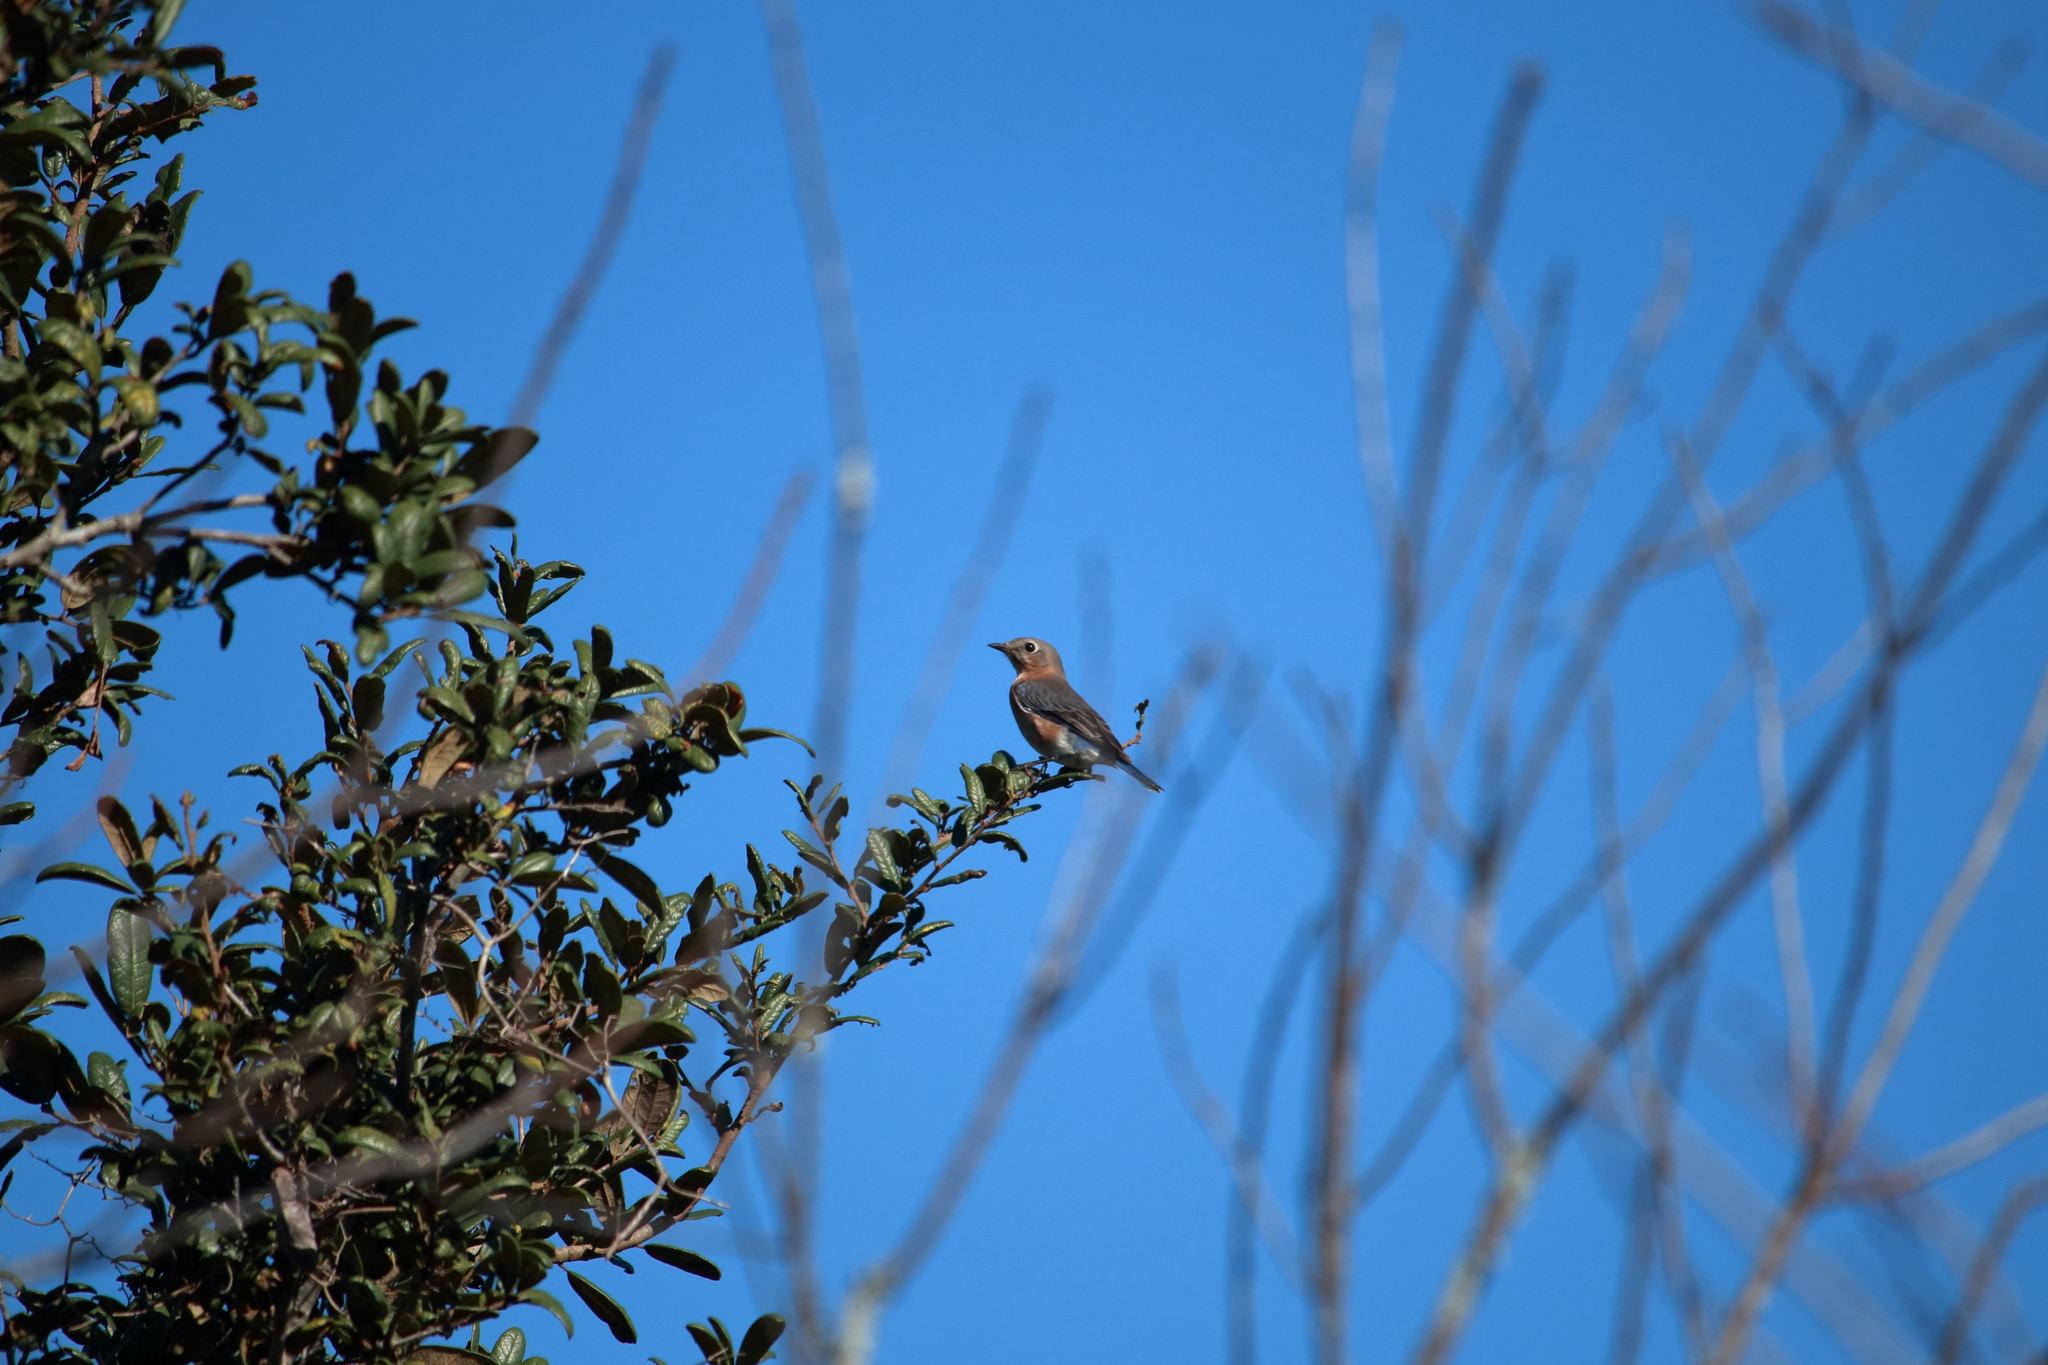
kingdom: Animalia
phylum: Chordata
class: Aves
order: Passeriformes
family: Turdidae
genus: Sialia
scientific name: Sialia sialis
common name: Eastern bluebird
